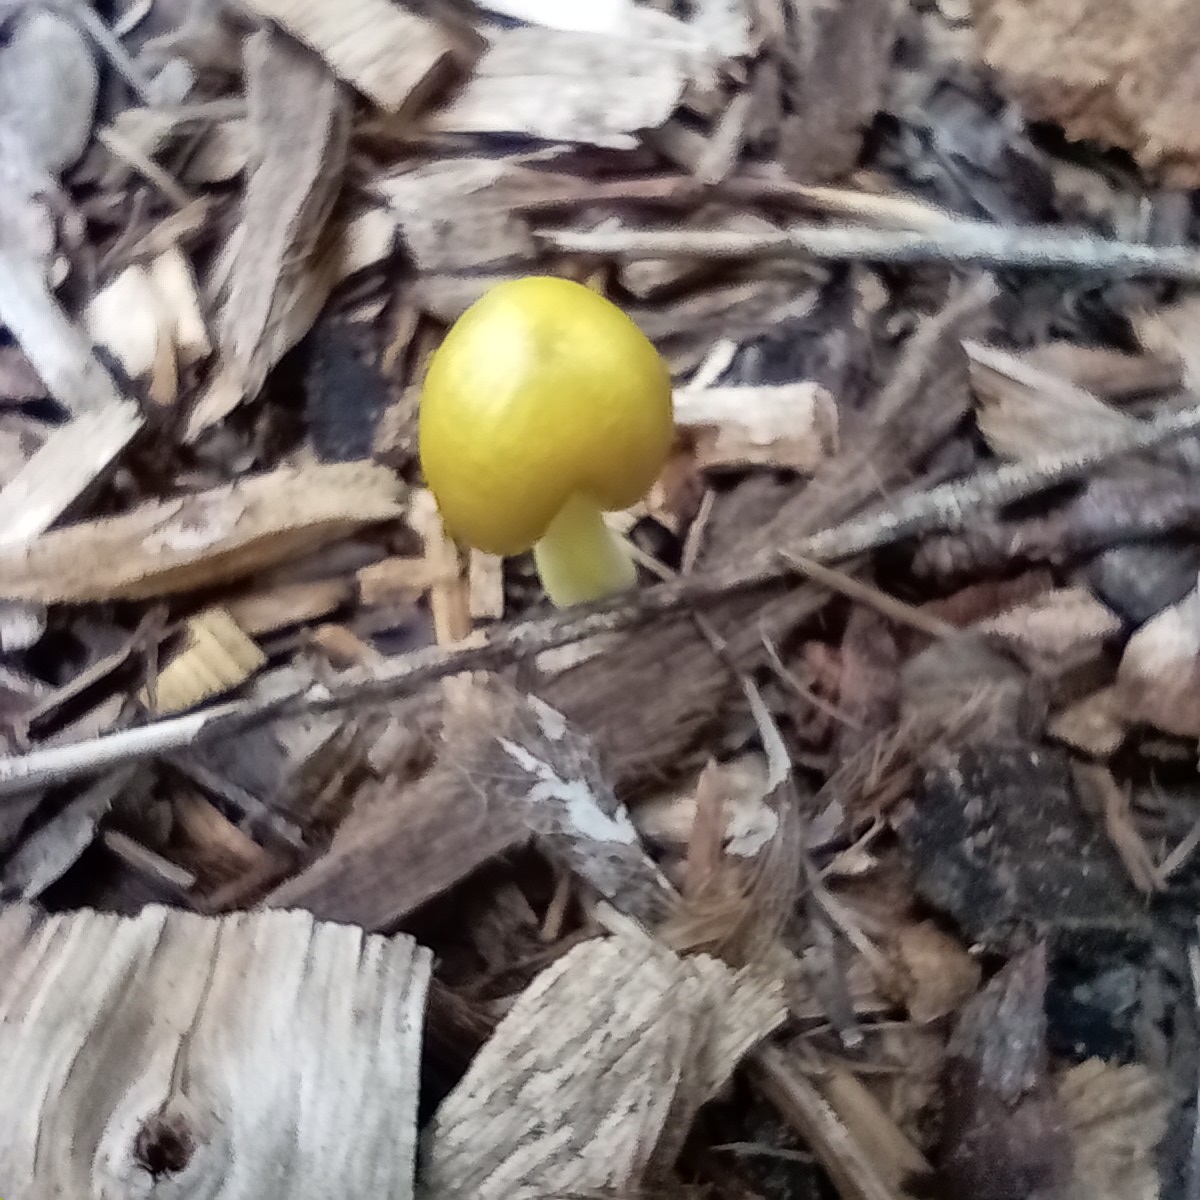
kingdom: Fungi
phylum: Basidiomycota
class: Agaricomycetes
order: Agaricales
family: Bolbitiaceae
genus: Bolbitius
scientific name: Bolbitius titubans
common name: Yellow fieldcap
